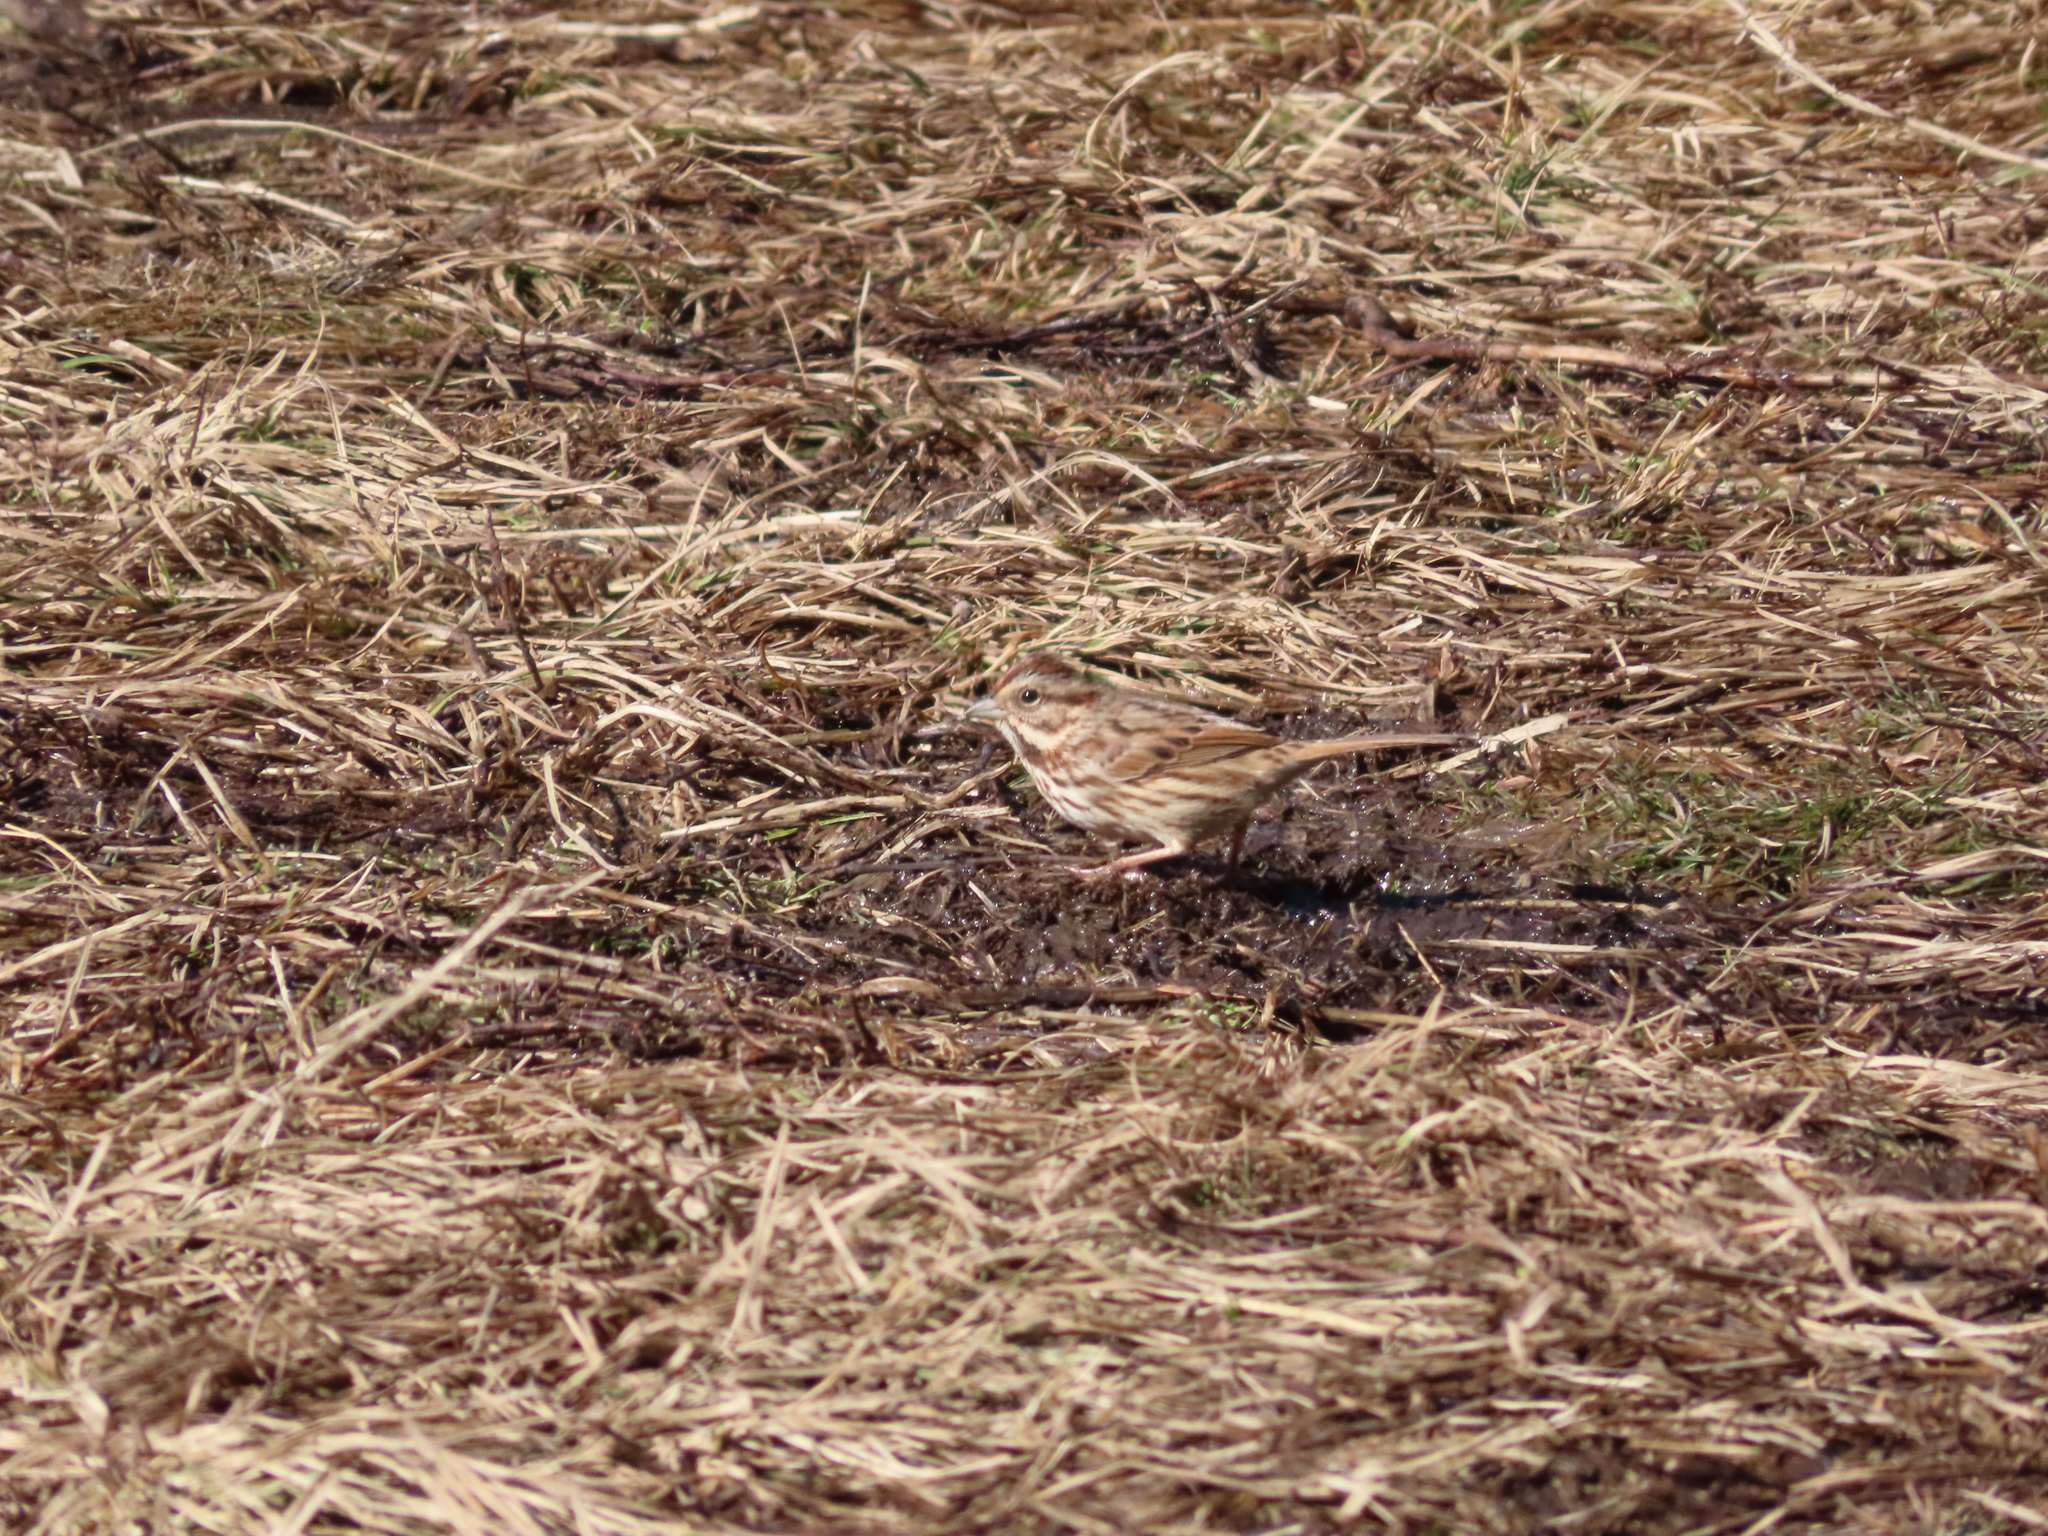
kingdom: Animalia
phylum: Chordata
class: Aves
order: Passeriformes
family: Passerellidae
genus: Melospiza
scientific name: Melospiza melodia
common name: Song sparrow
